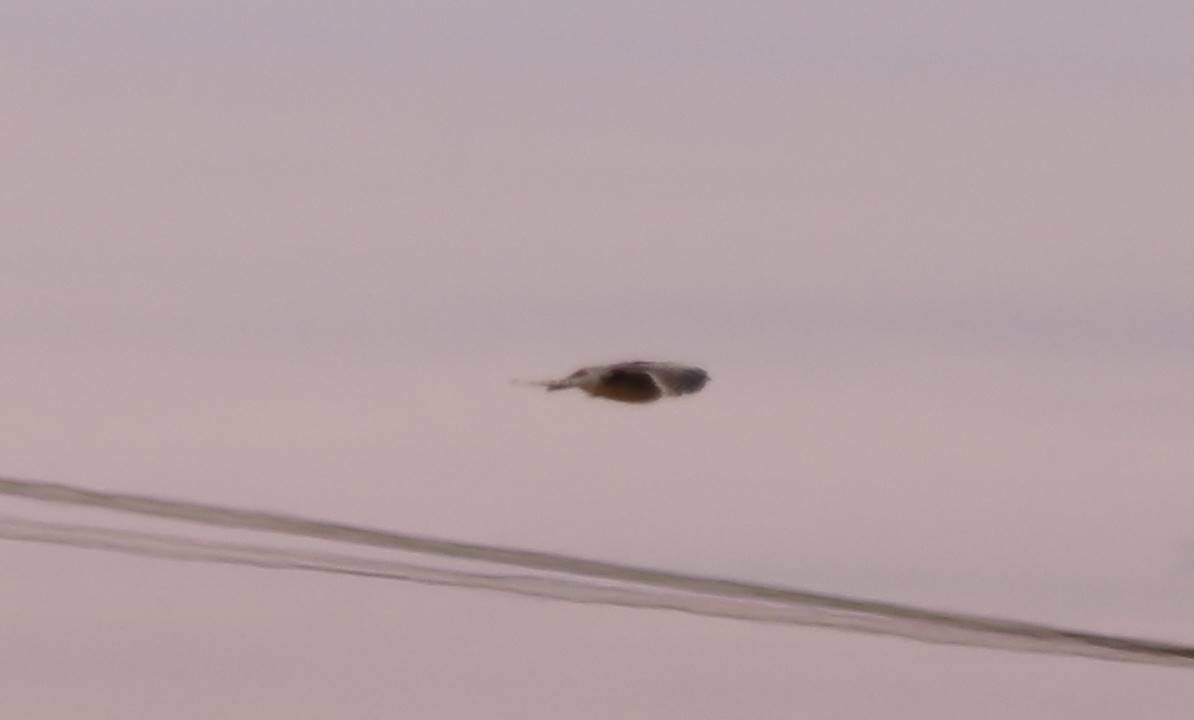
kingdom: Animalia
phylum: Chordata
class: Aves
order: Caprimulgiformes
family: Caprimulgidae
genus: Caprimulgus
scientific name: Caprimulgus europaeus
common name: European nightjar
